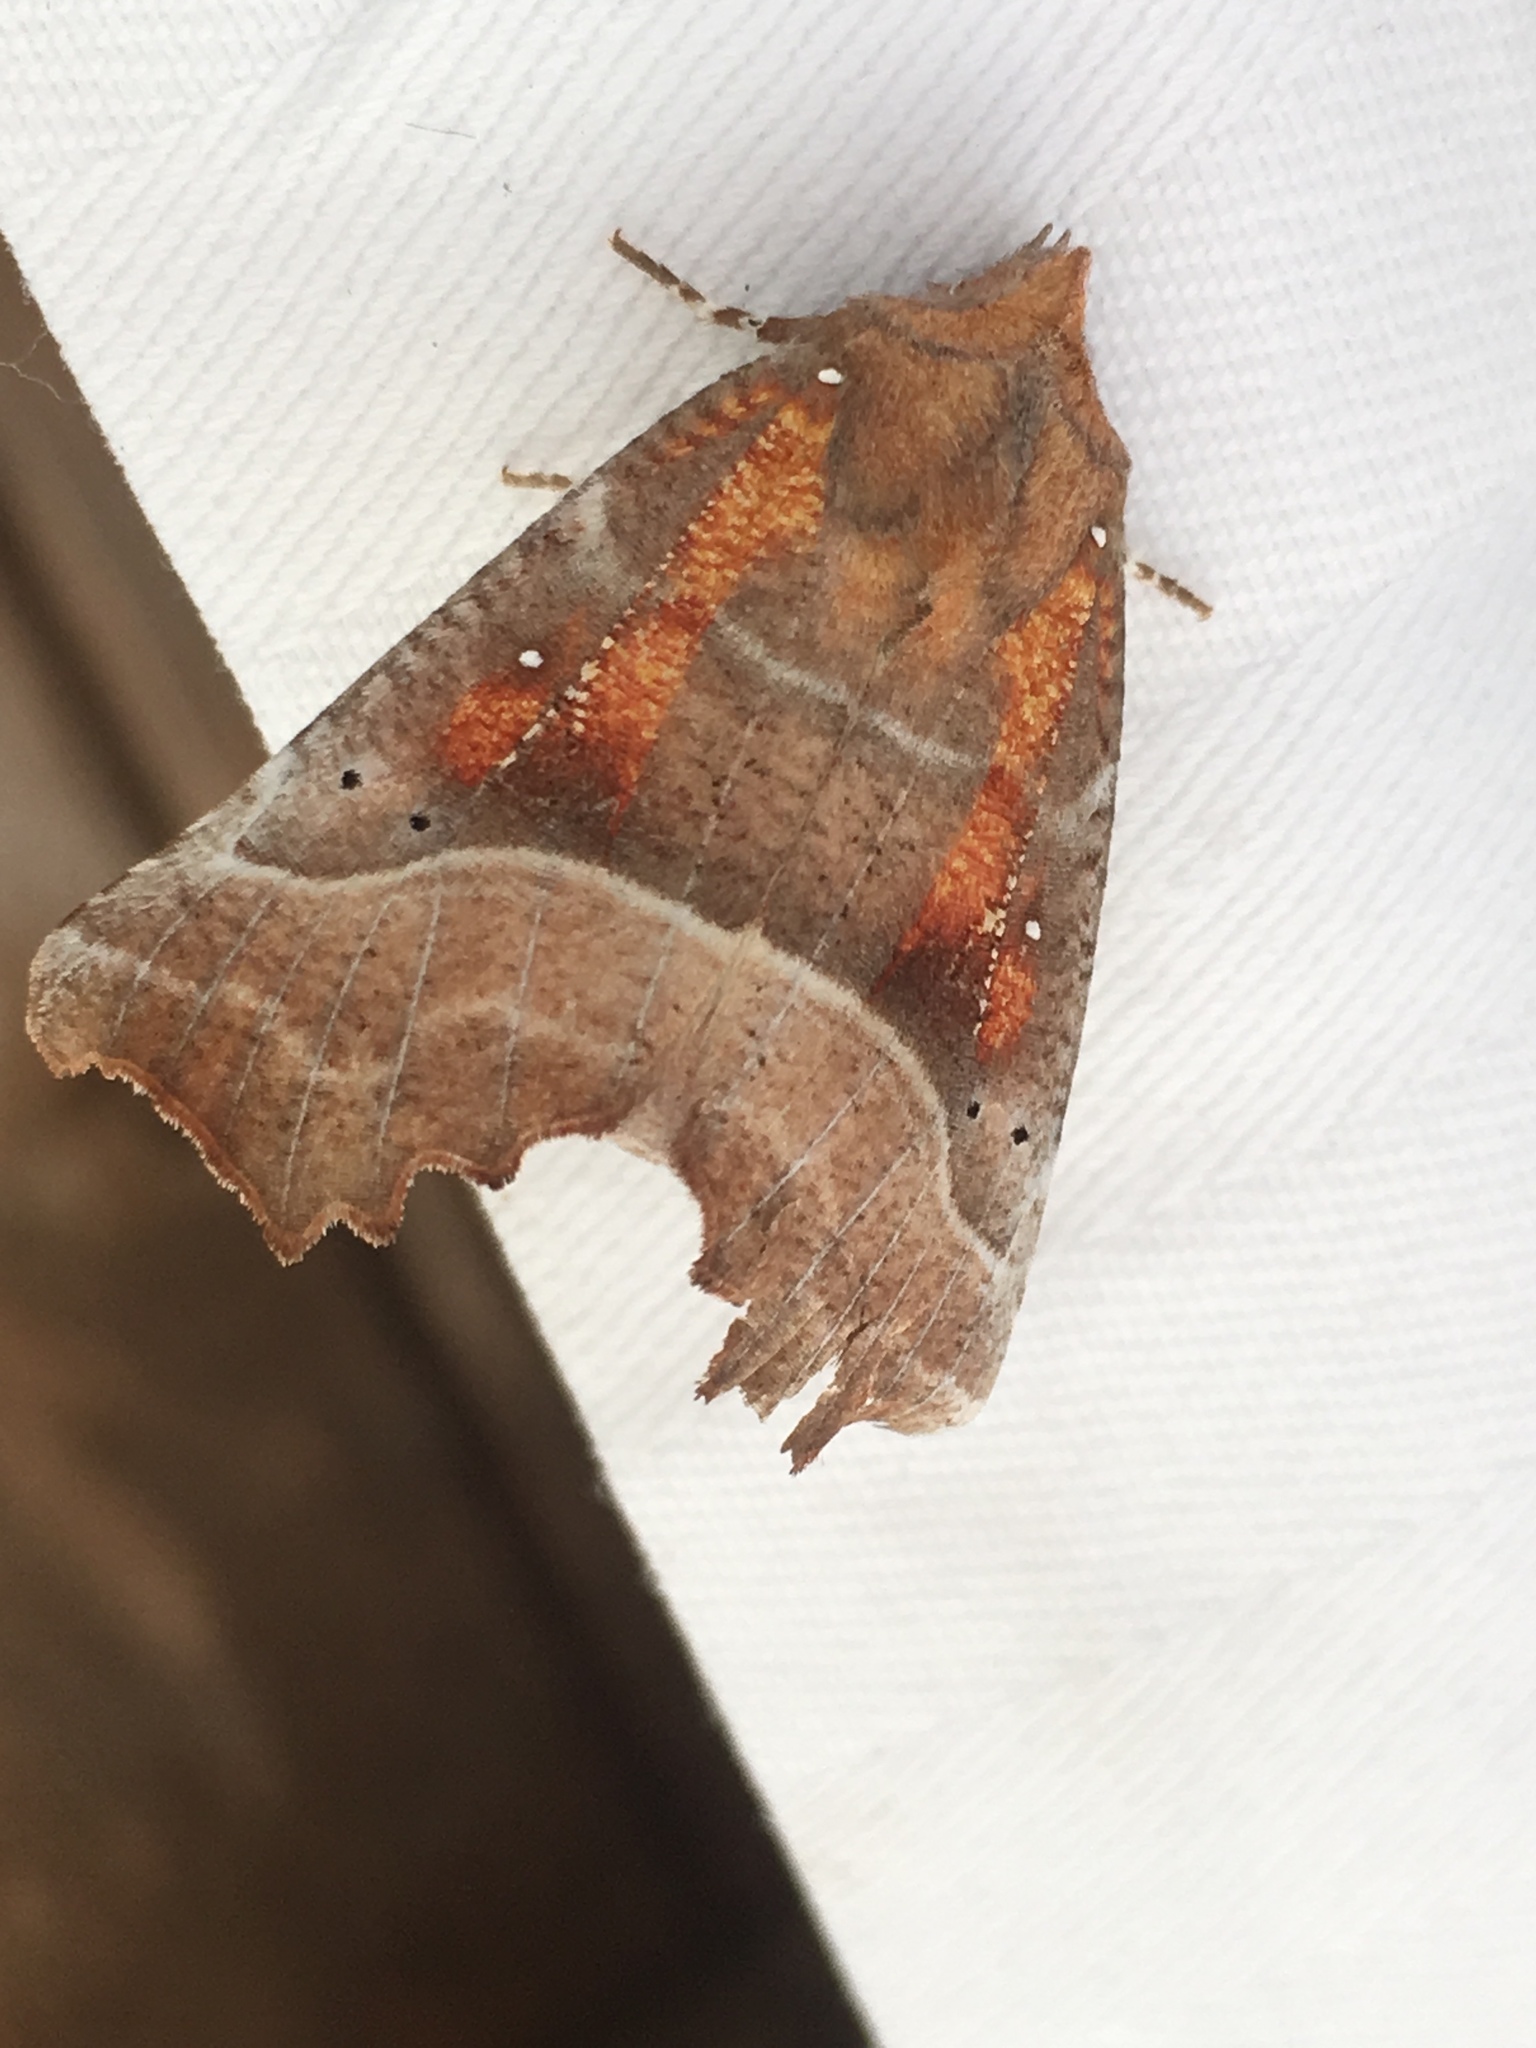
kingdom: Animalia
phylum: Arthropoda
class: Insecta
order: Lepidoptera
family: Erebidae
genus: Scoliopteryx
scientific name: Scoliopteryx libatrix
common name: Herald
